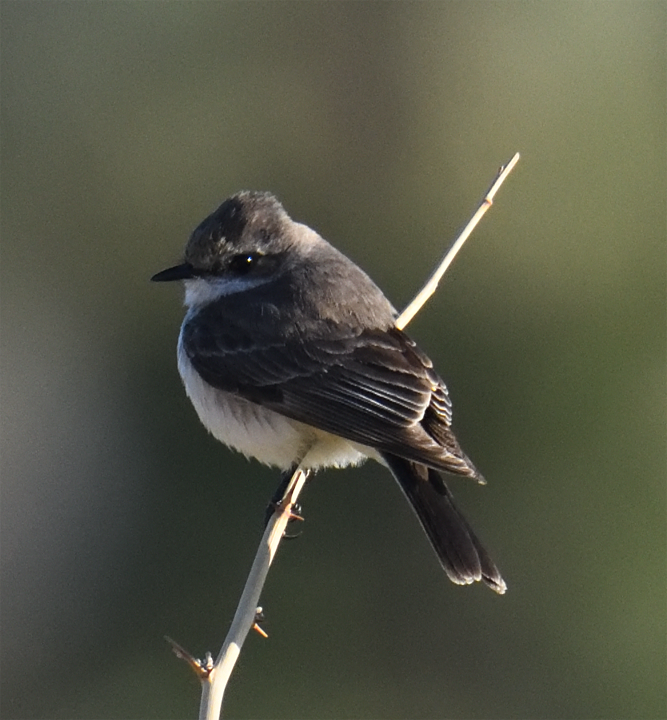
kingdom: Animalia
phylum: Chordata
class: Aves
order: Passeriformes
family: Tyrannidae
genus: Pyrocephalus
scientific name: Pyrocephalus rubinus
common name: Vermilion flycatcher
